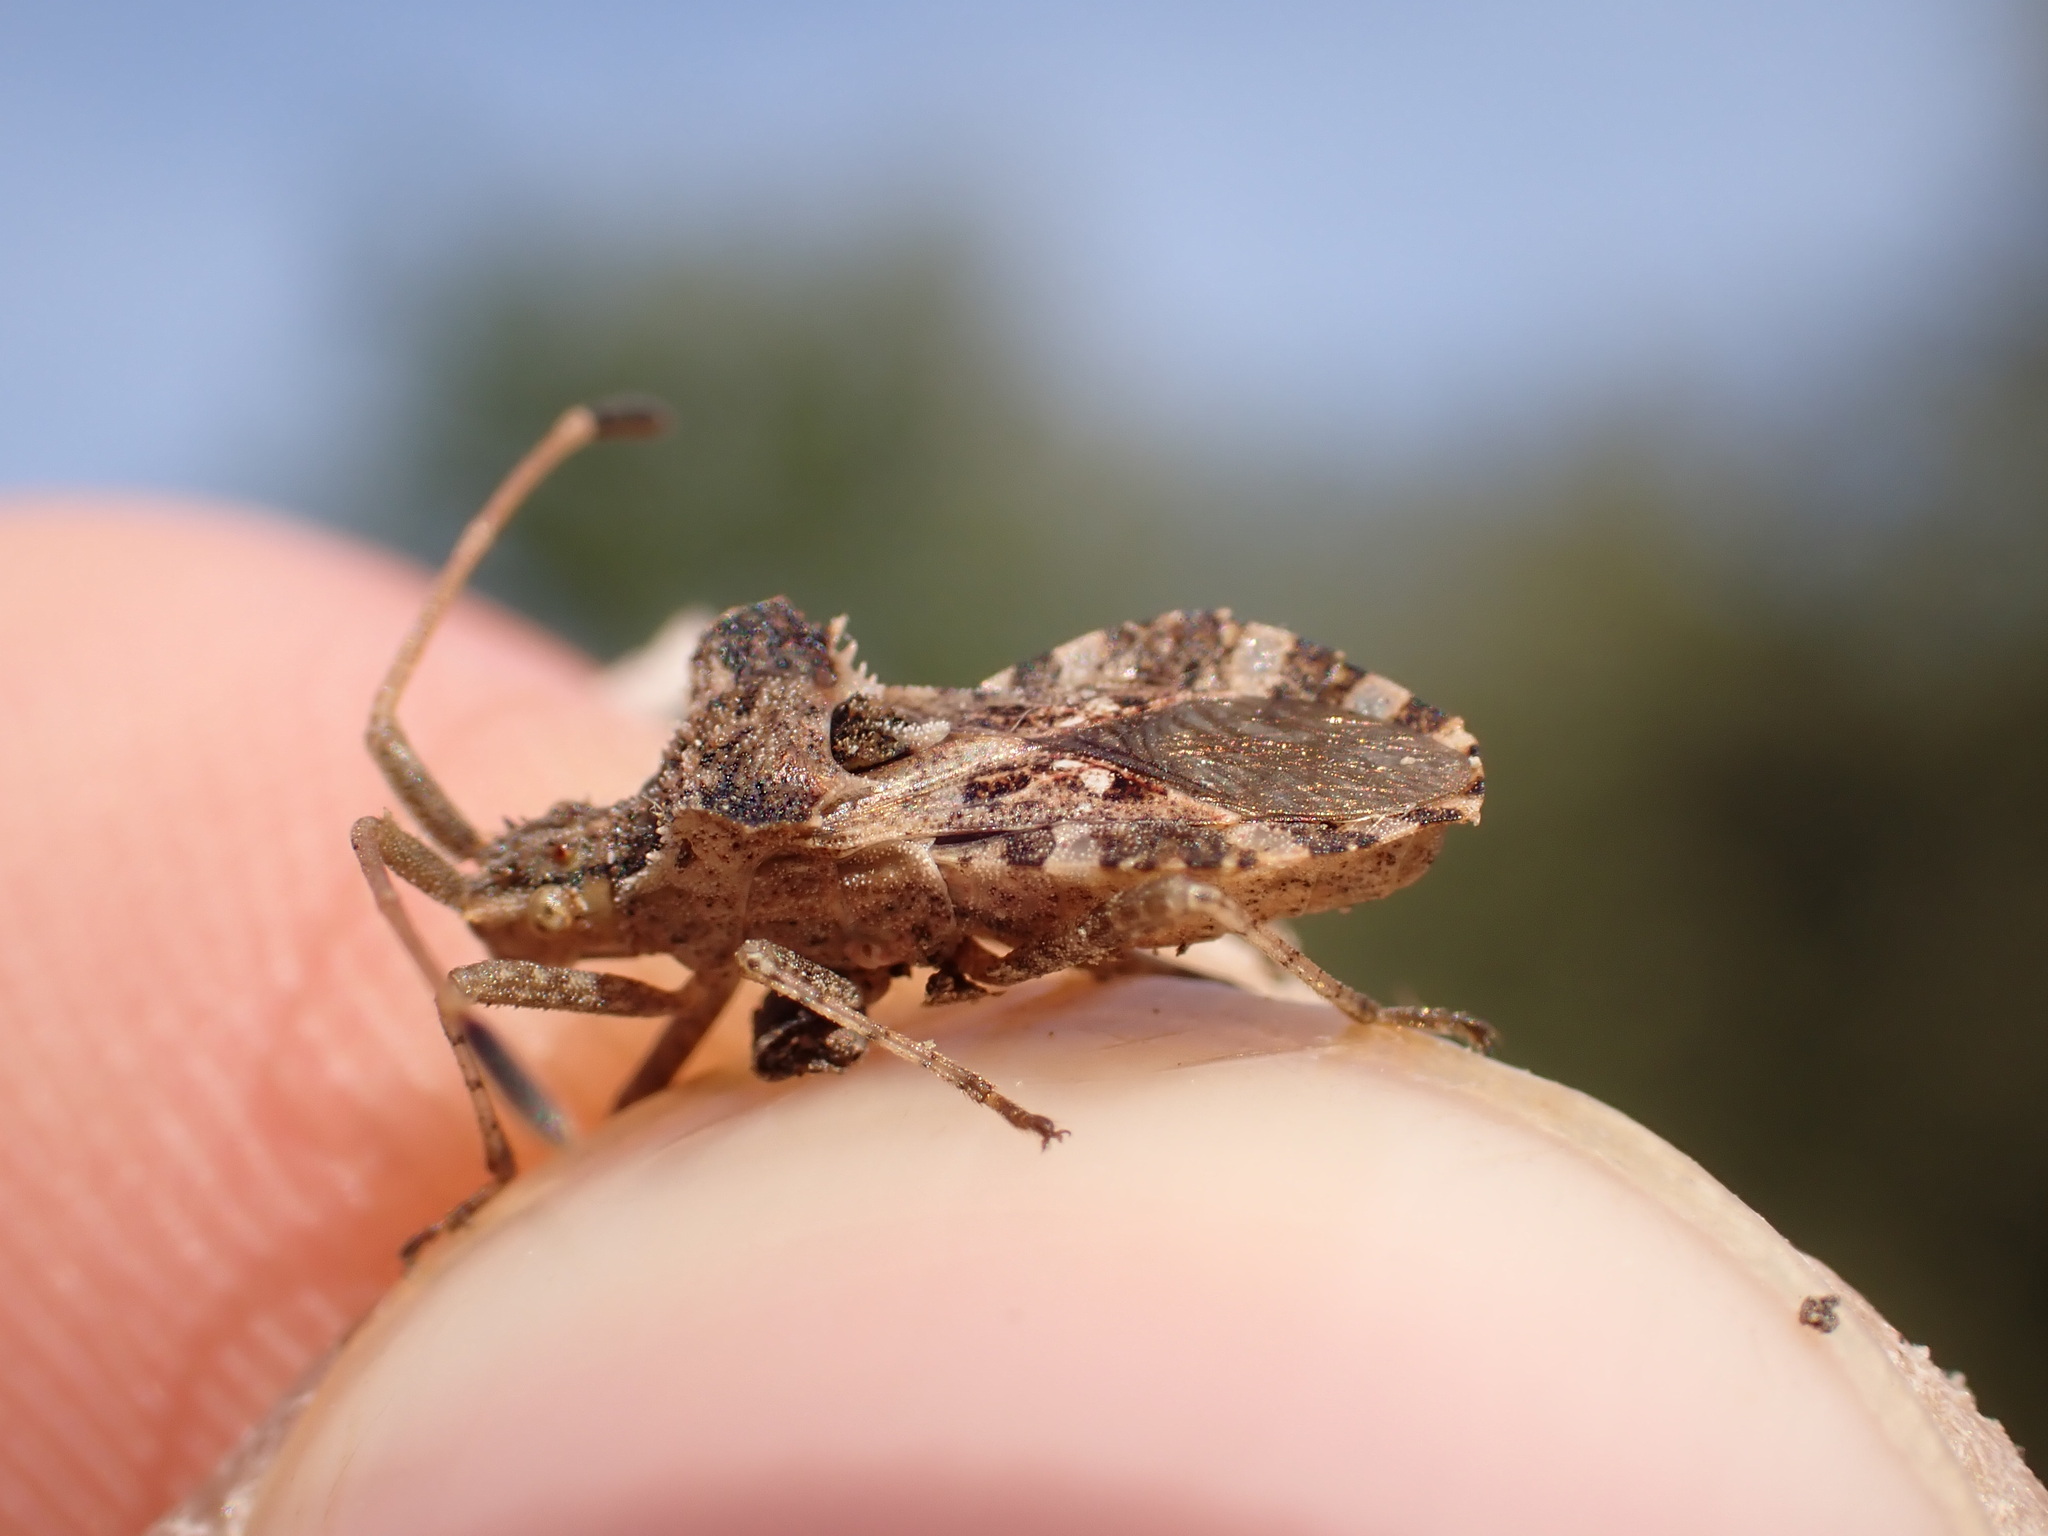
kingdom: Animalia
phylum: Arthropoda
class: Insecta
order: Hemiptera
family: Coreidae
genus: Centrocoris
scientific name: Centrocoris spiniger
